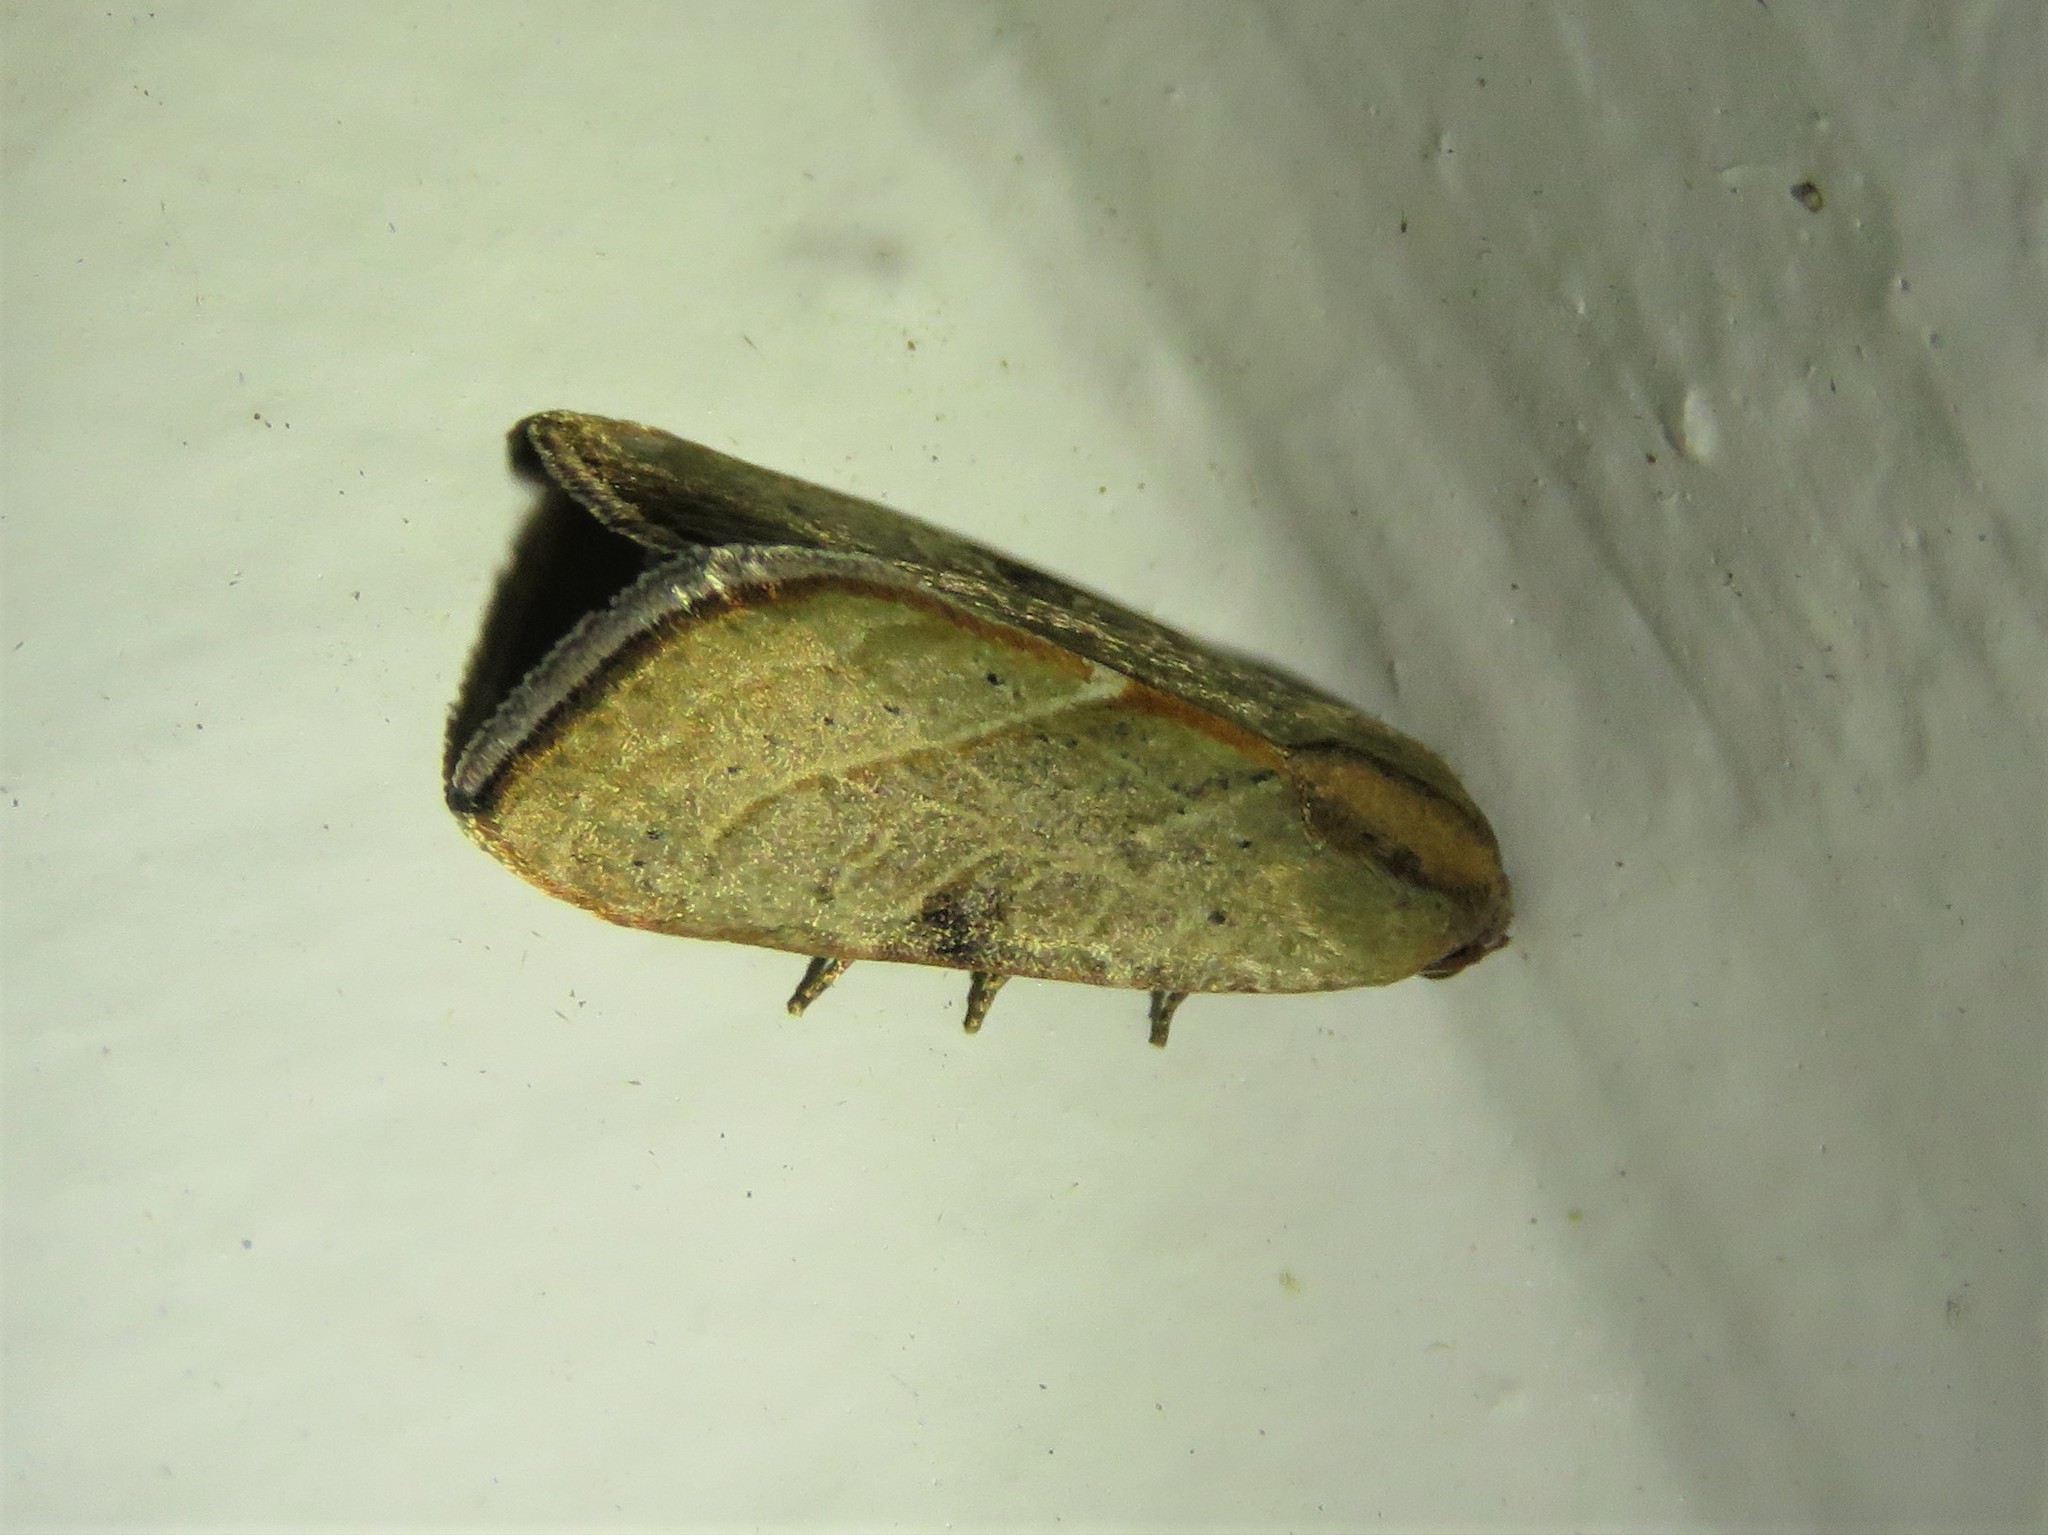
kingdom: Animalia
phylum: Arthropoda
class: Insecta
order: Lepidoptera
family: Noctuidae
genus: Galgula
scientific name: Galgula partita
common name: Wedgeling
